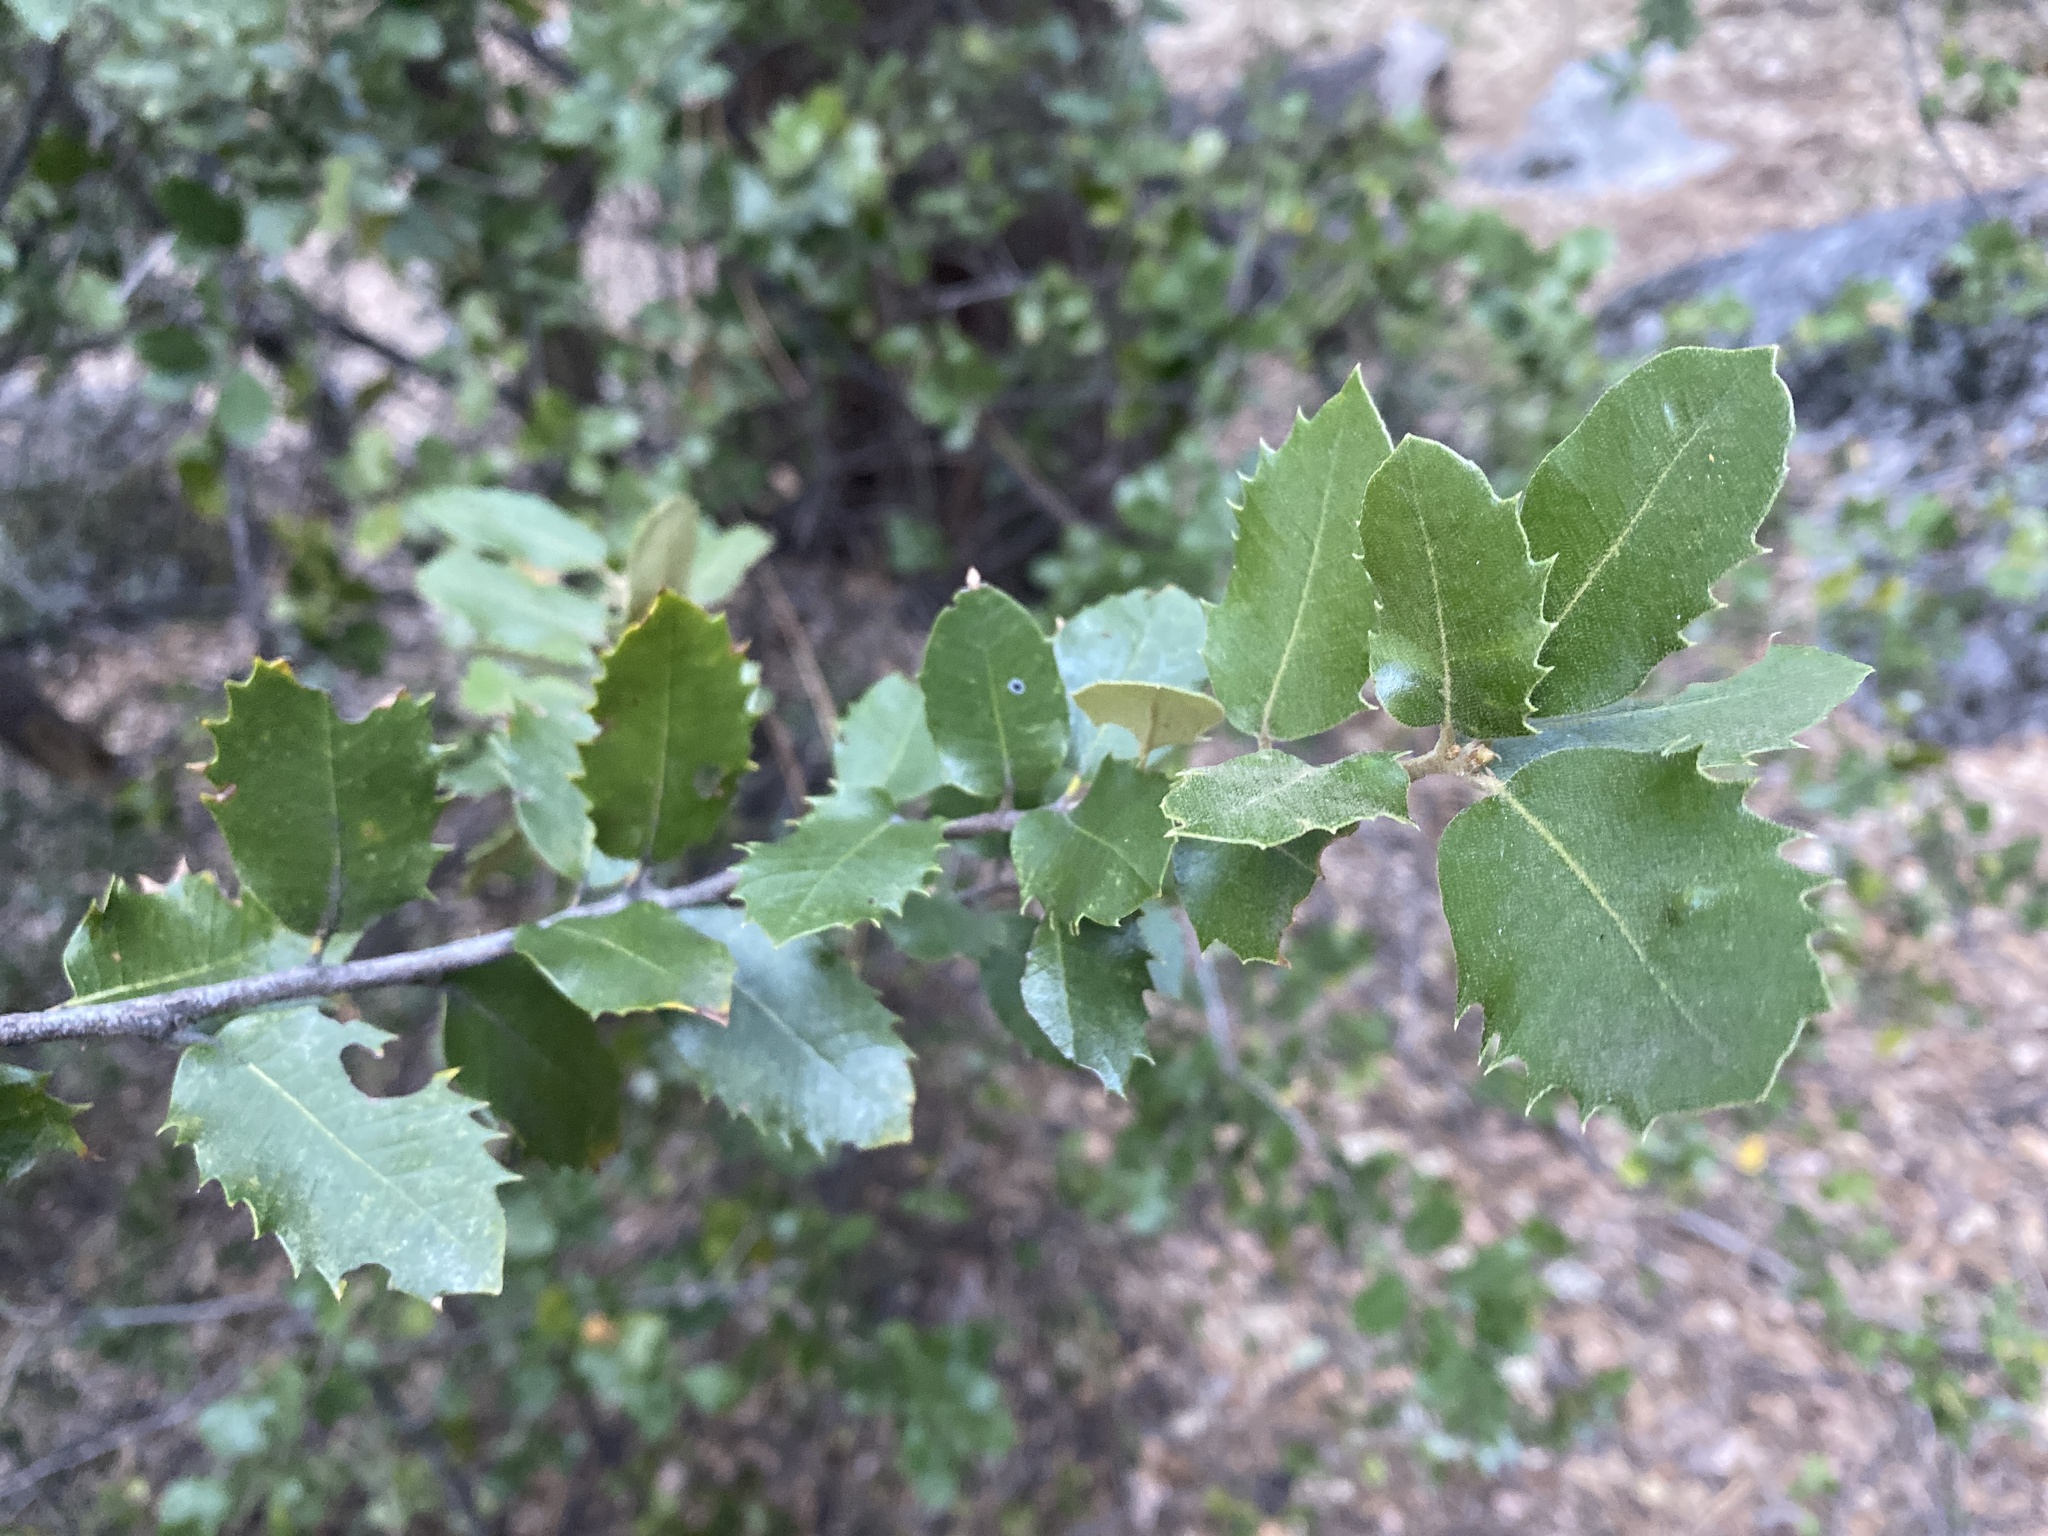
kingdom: Plantae
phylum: Tracheophyta
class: Magnoliopsida
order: Fagales
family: Fagaceae
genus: Quercus
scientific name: Quercus chrysolepis
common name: Canyon live oak
